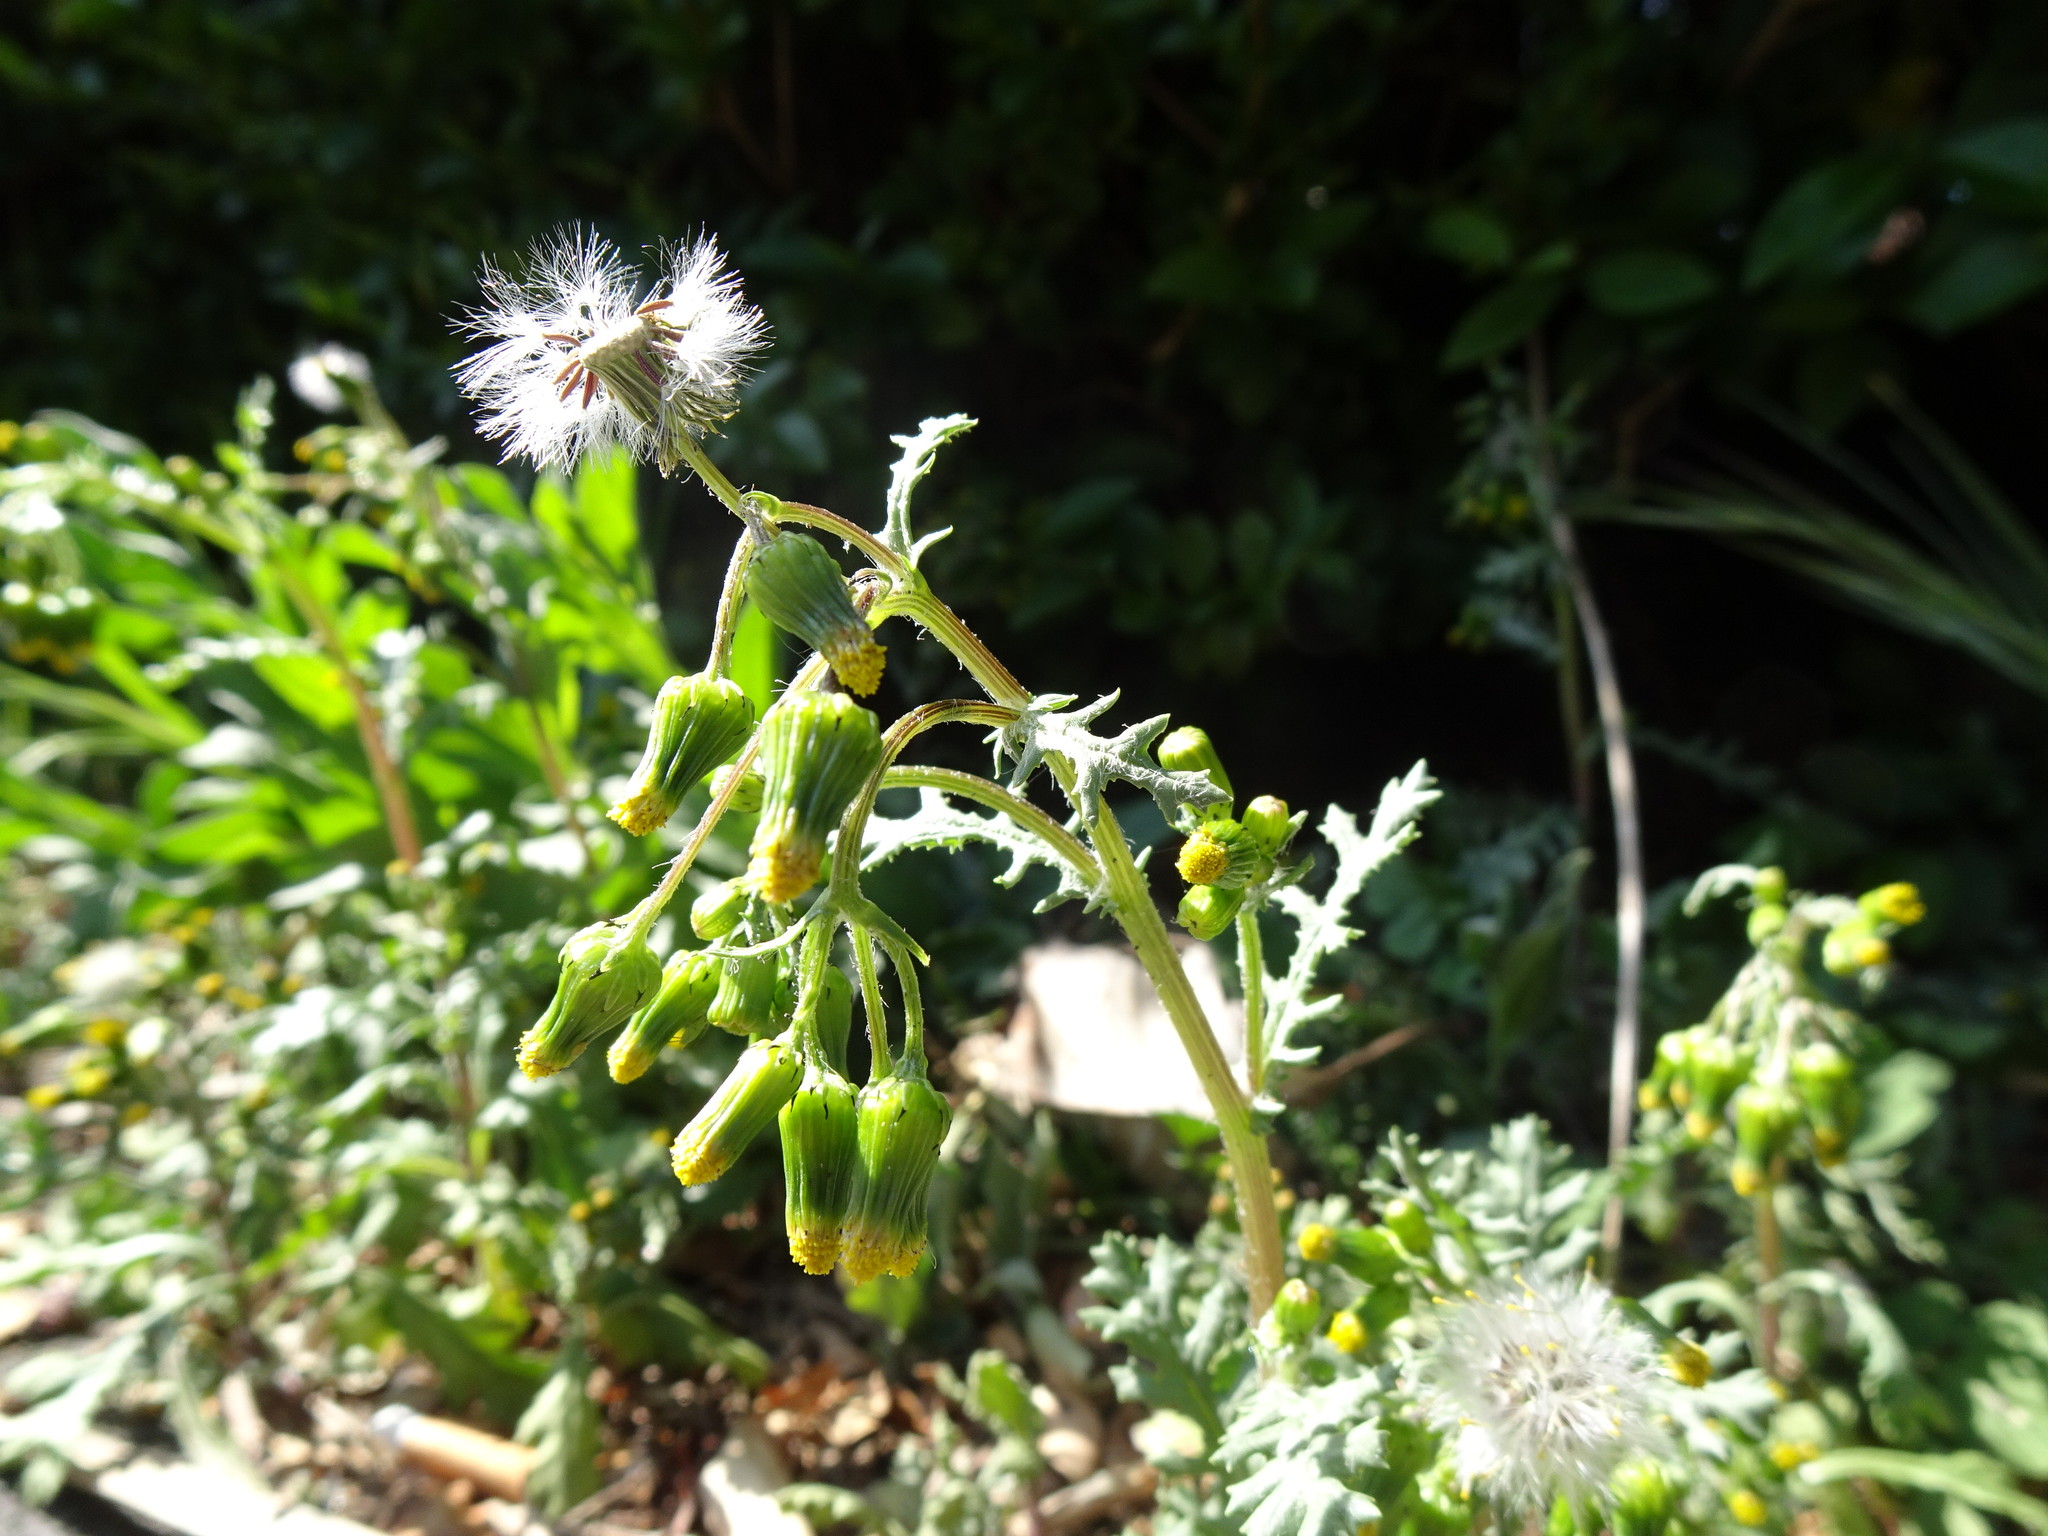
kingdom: Plantae
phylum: Tracheophyta
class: Magnoliopsida
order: Asterales
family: Asteraceae
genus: Senecio
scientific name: Senecio vulgaris
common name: Old-man-in-the-spring
